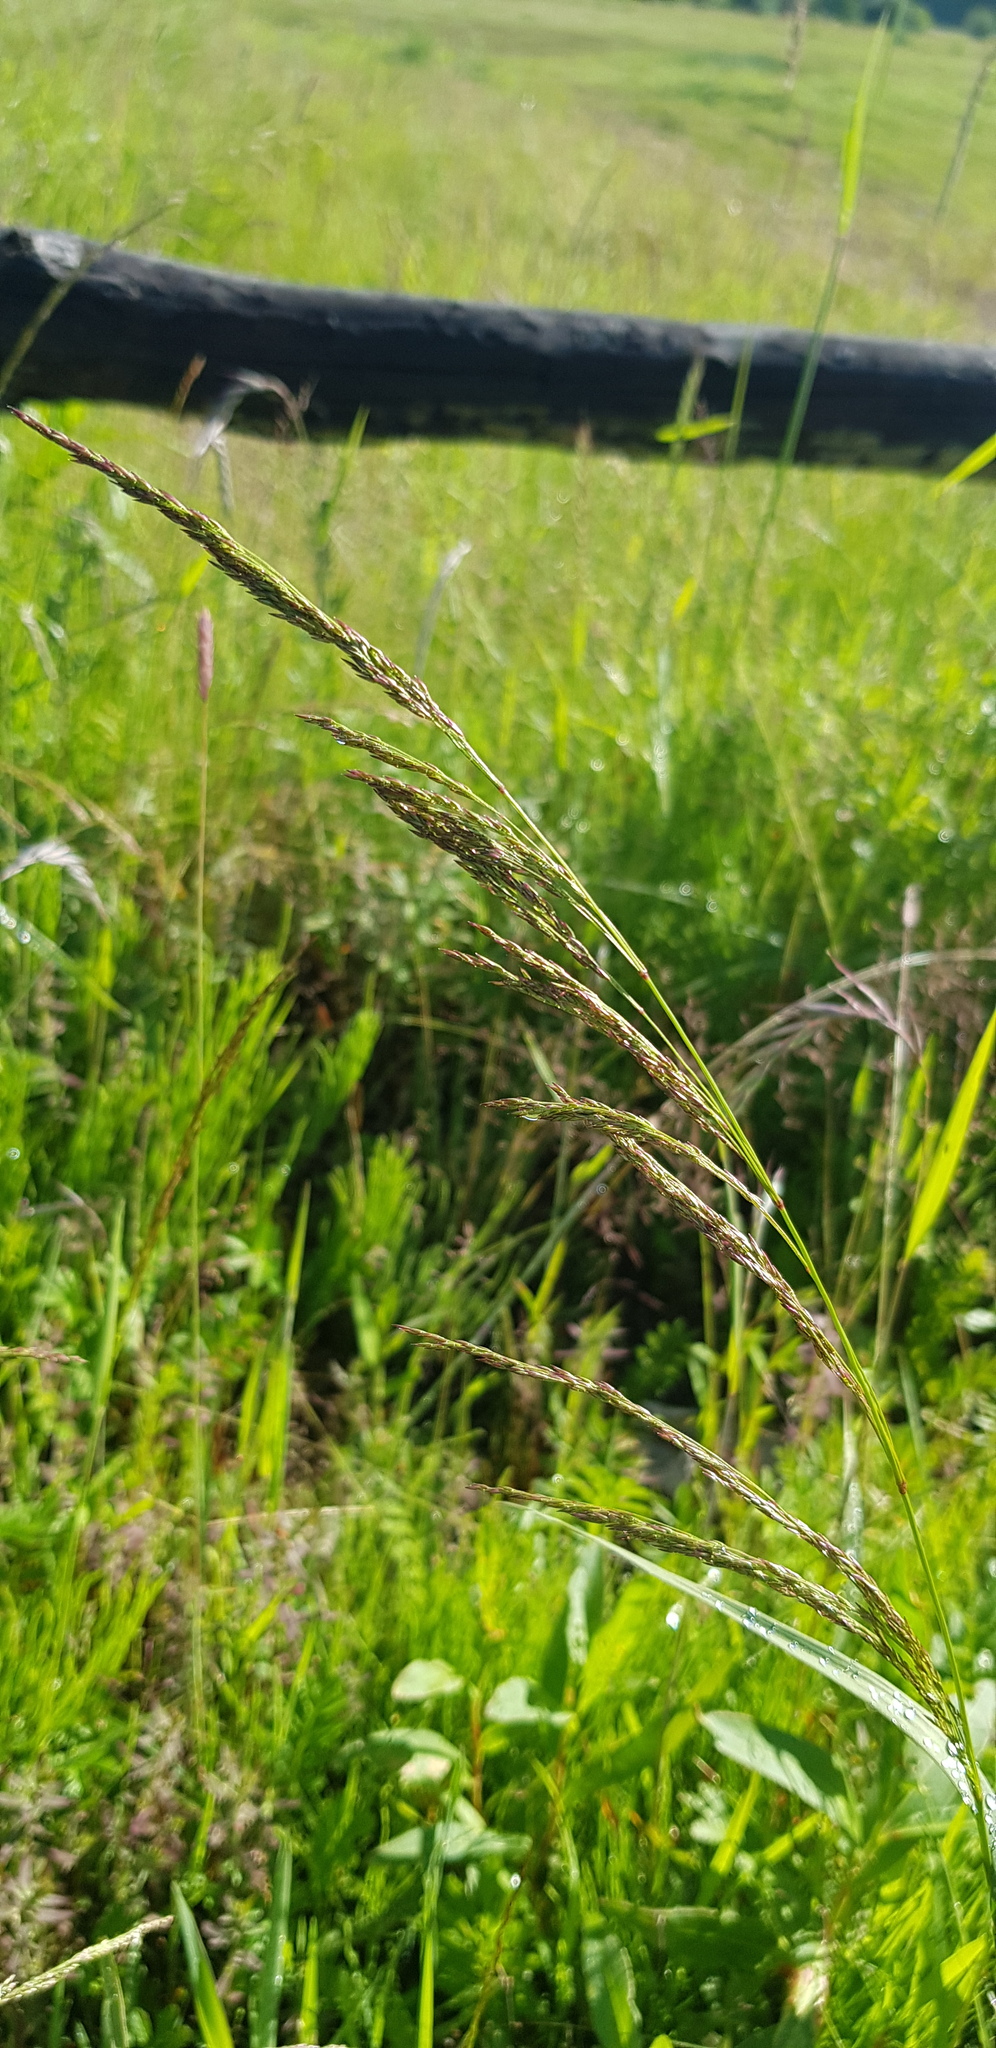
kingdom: Plantae
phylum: Tracheophyta
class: Liliopsida
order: Poales
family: Poaceae
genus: Neotrinia
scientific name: Neotrinia splendens
